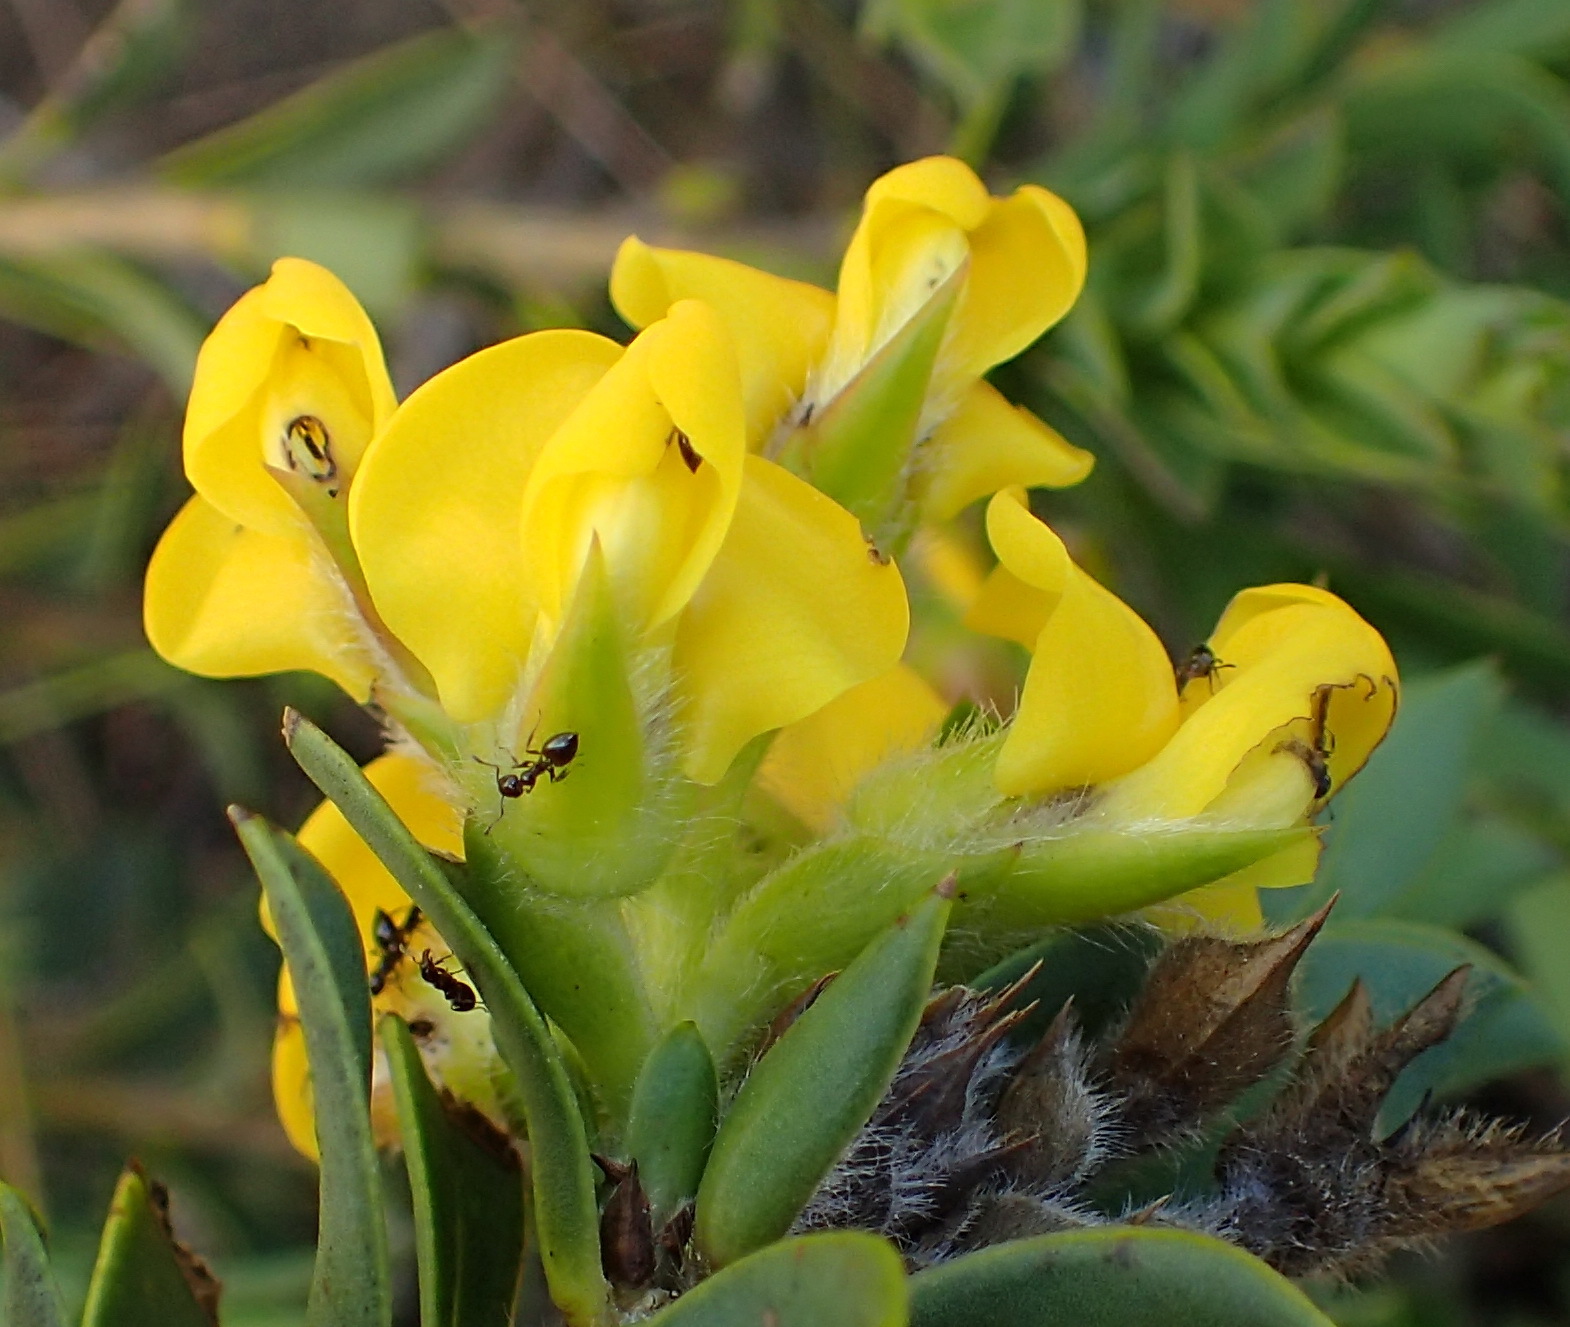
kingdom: Plantae
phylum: Tracheophyta
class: Magnoliopsida
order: Fabales
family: Fabaceae
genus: Liparia
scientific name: Liparia hirsuta
